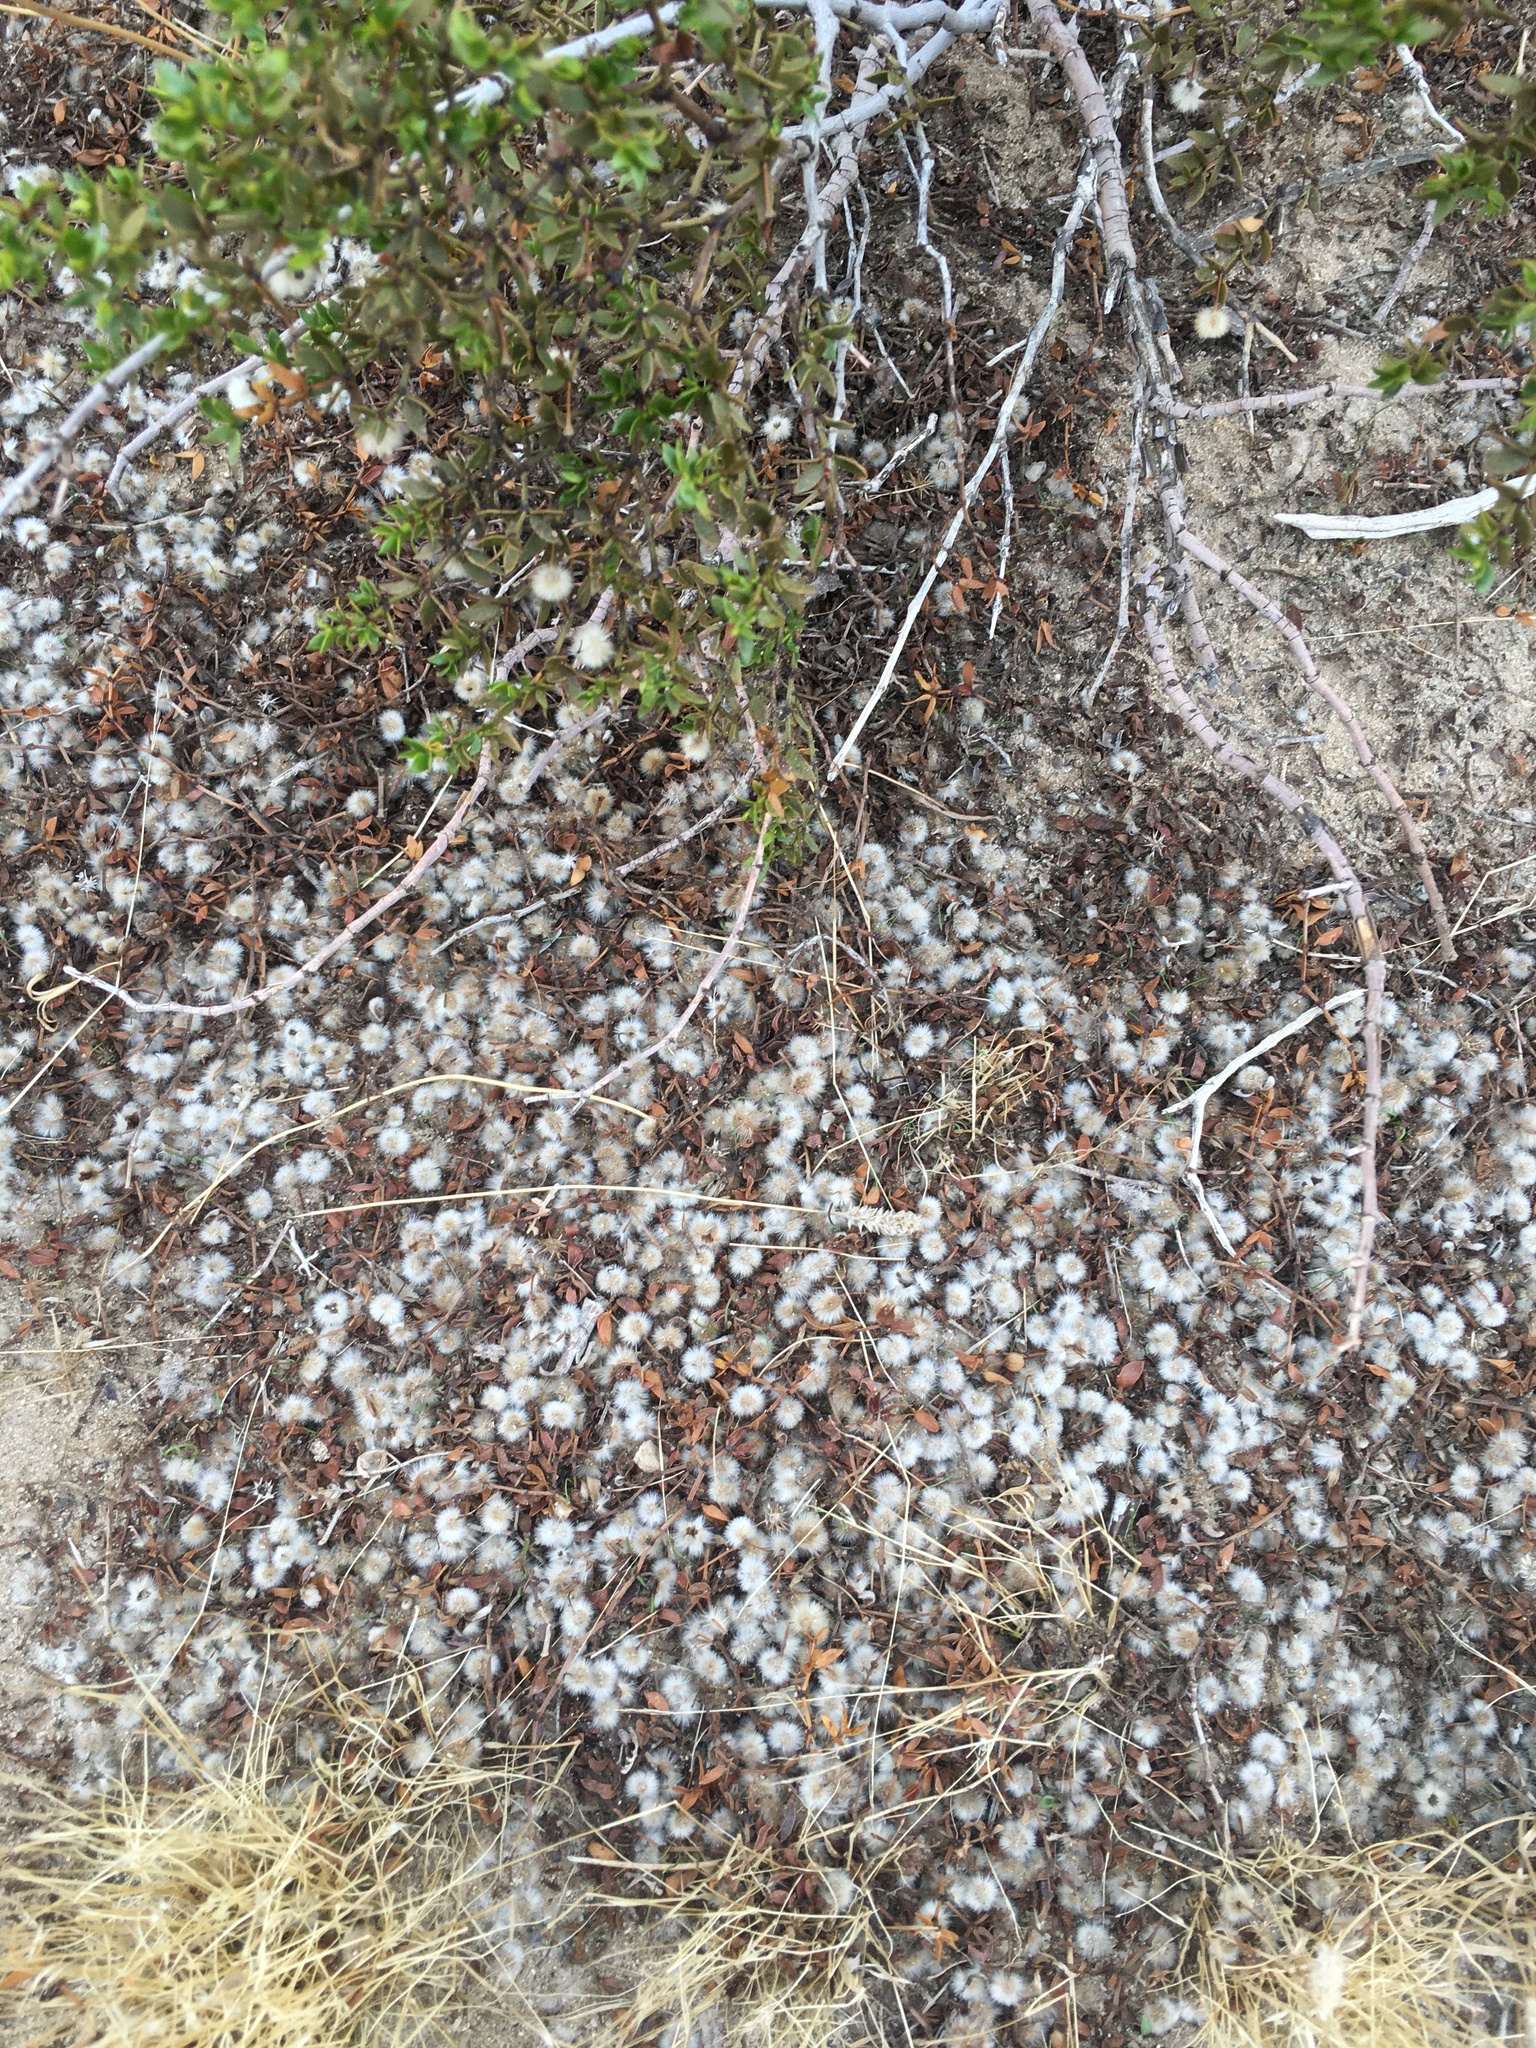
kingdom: Plantae
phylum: Tracheophyta
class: Magnoliopsida
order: Zygophyllales
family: Zygophyllaceae
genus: Larrea
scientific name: Larrea tridentata
